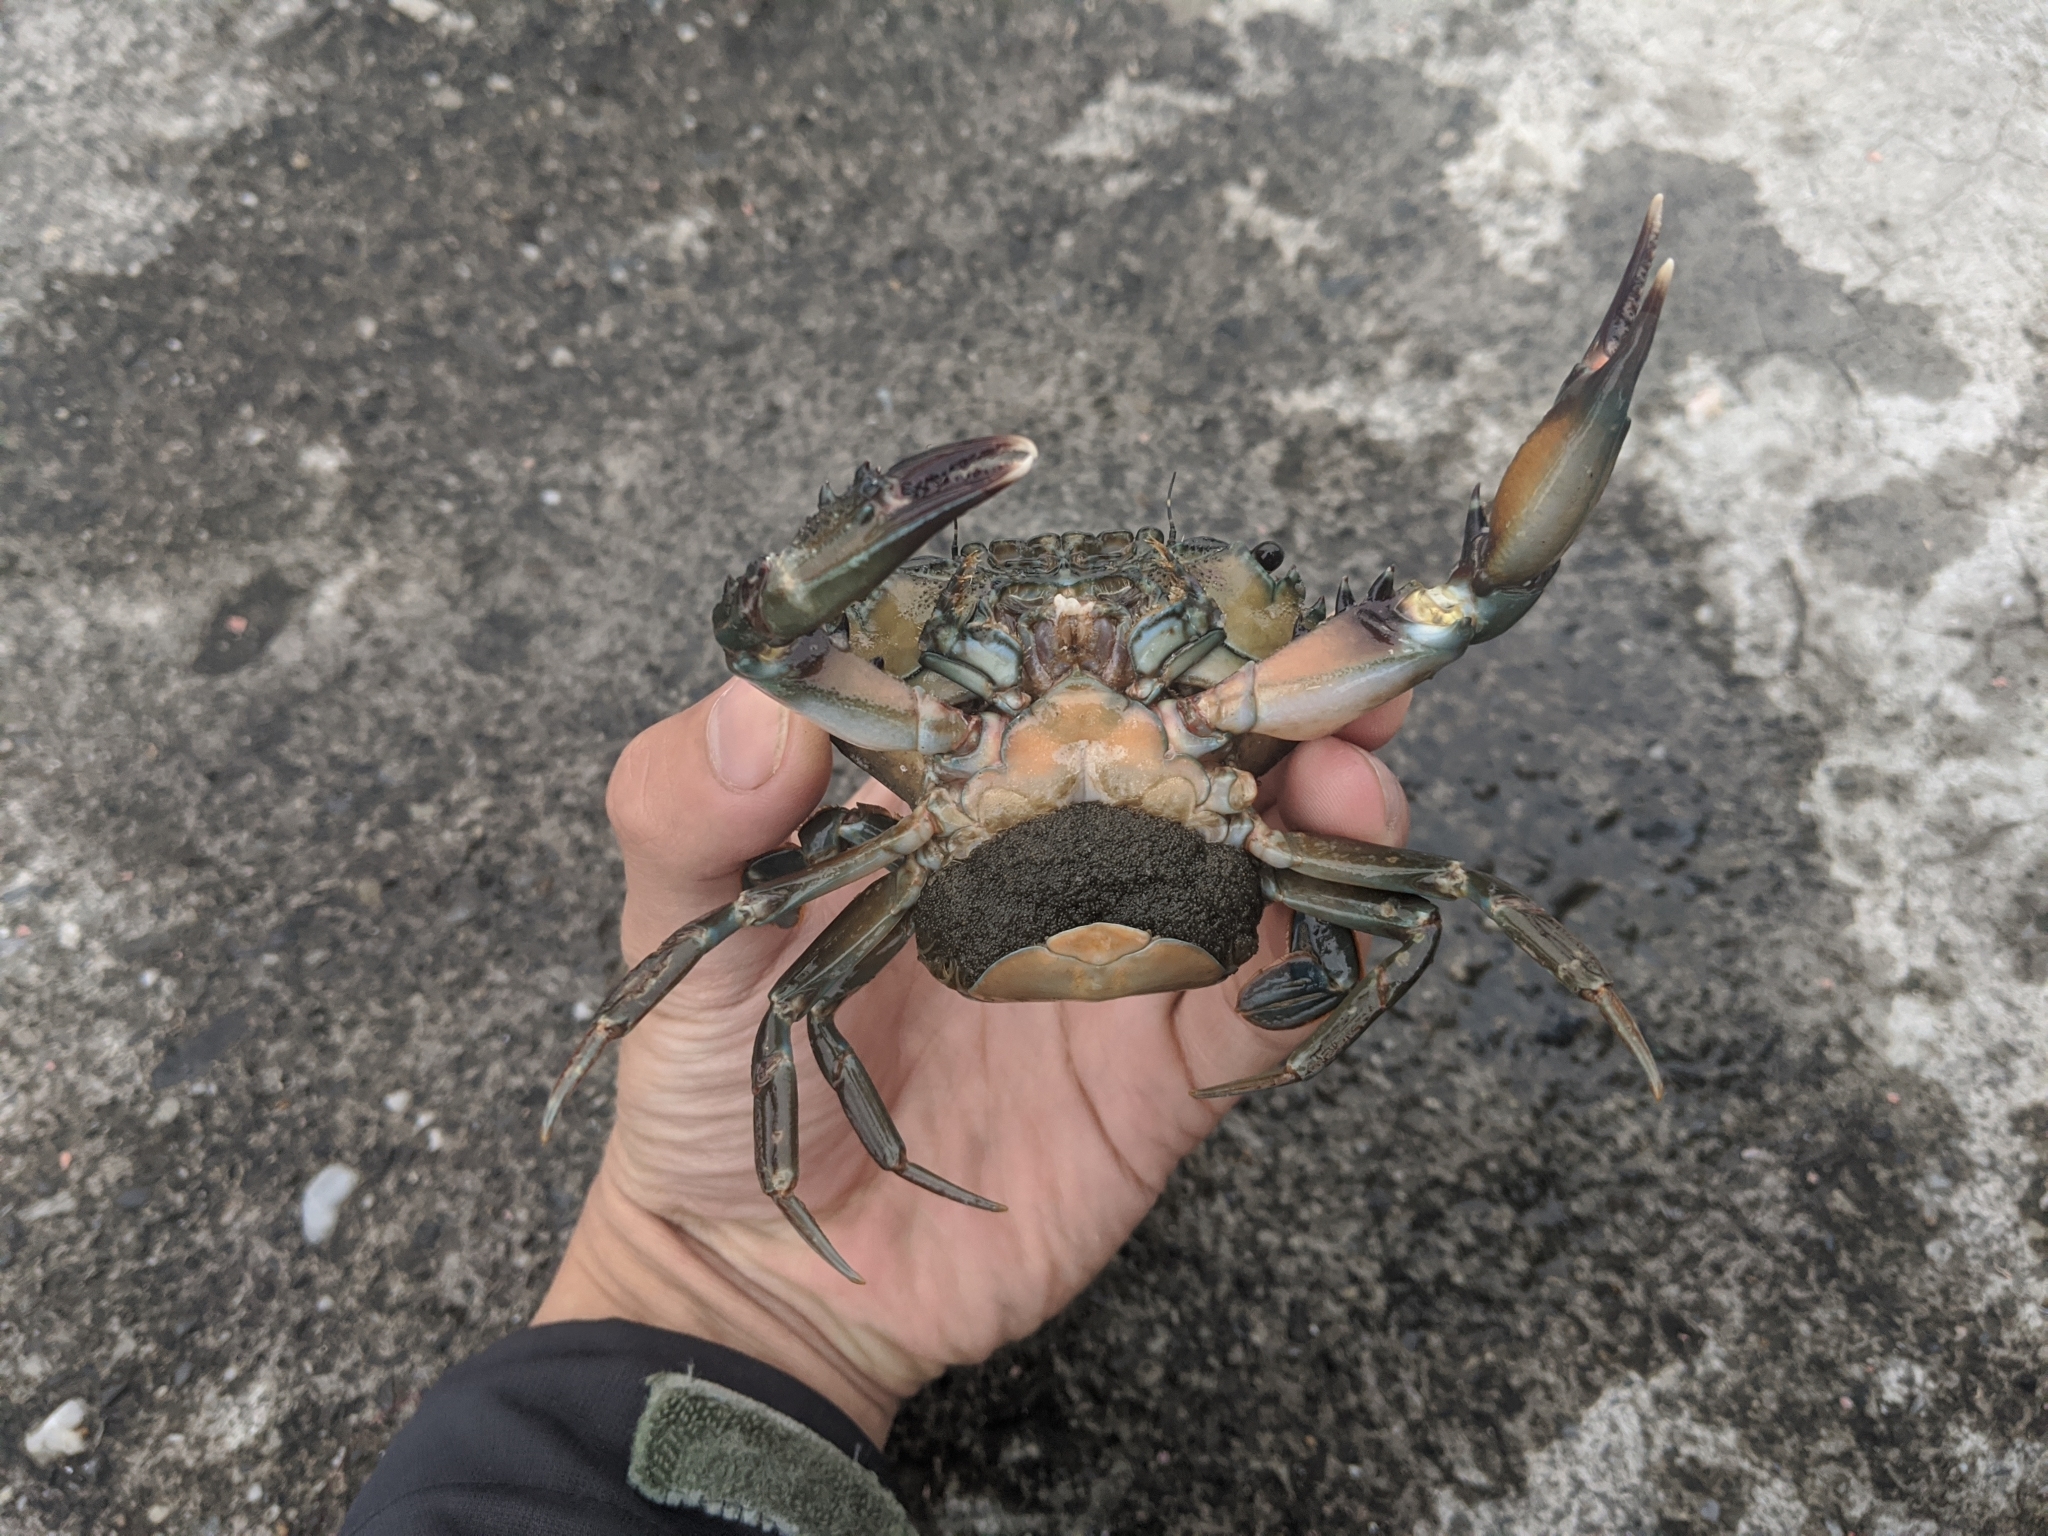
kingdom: Animalia
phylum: Arthropoda
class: Malacostraca
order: Decapoda
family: Portunidae
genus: Thalamita
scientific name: Thalamita prymna
